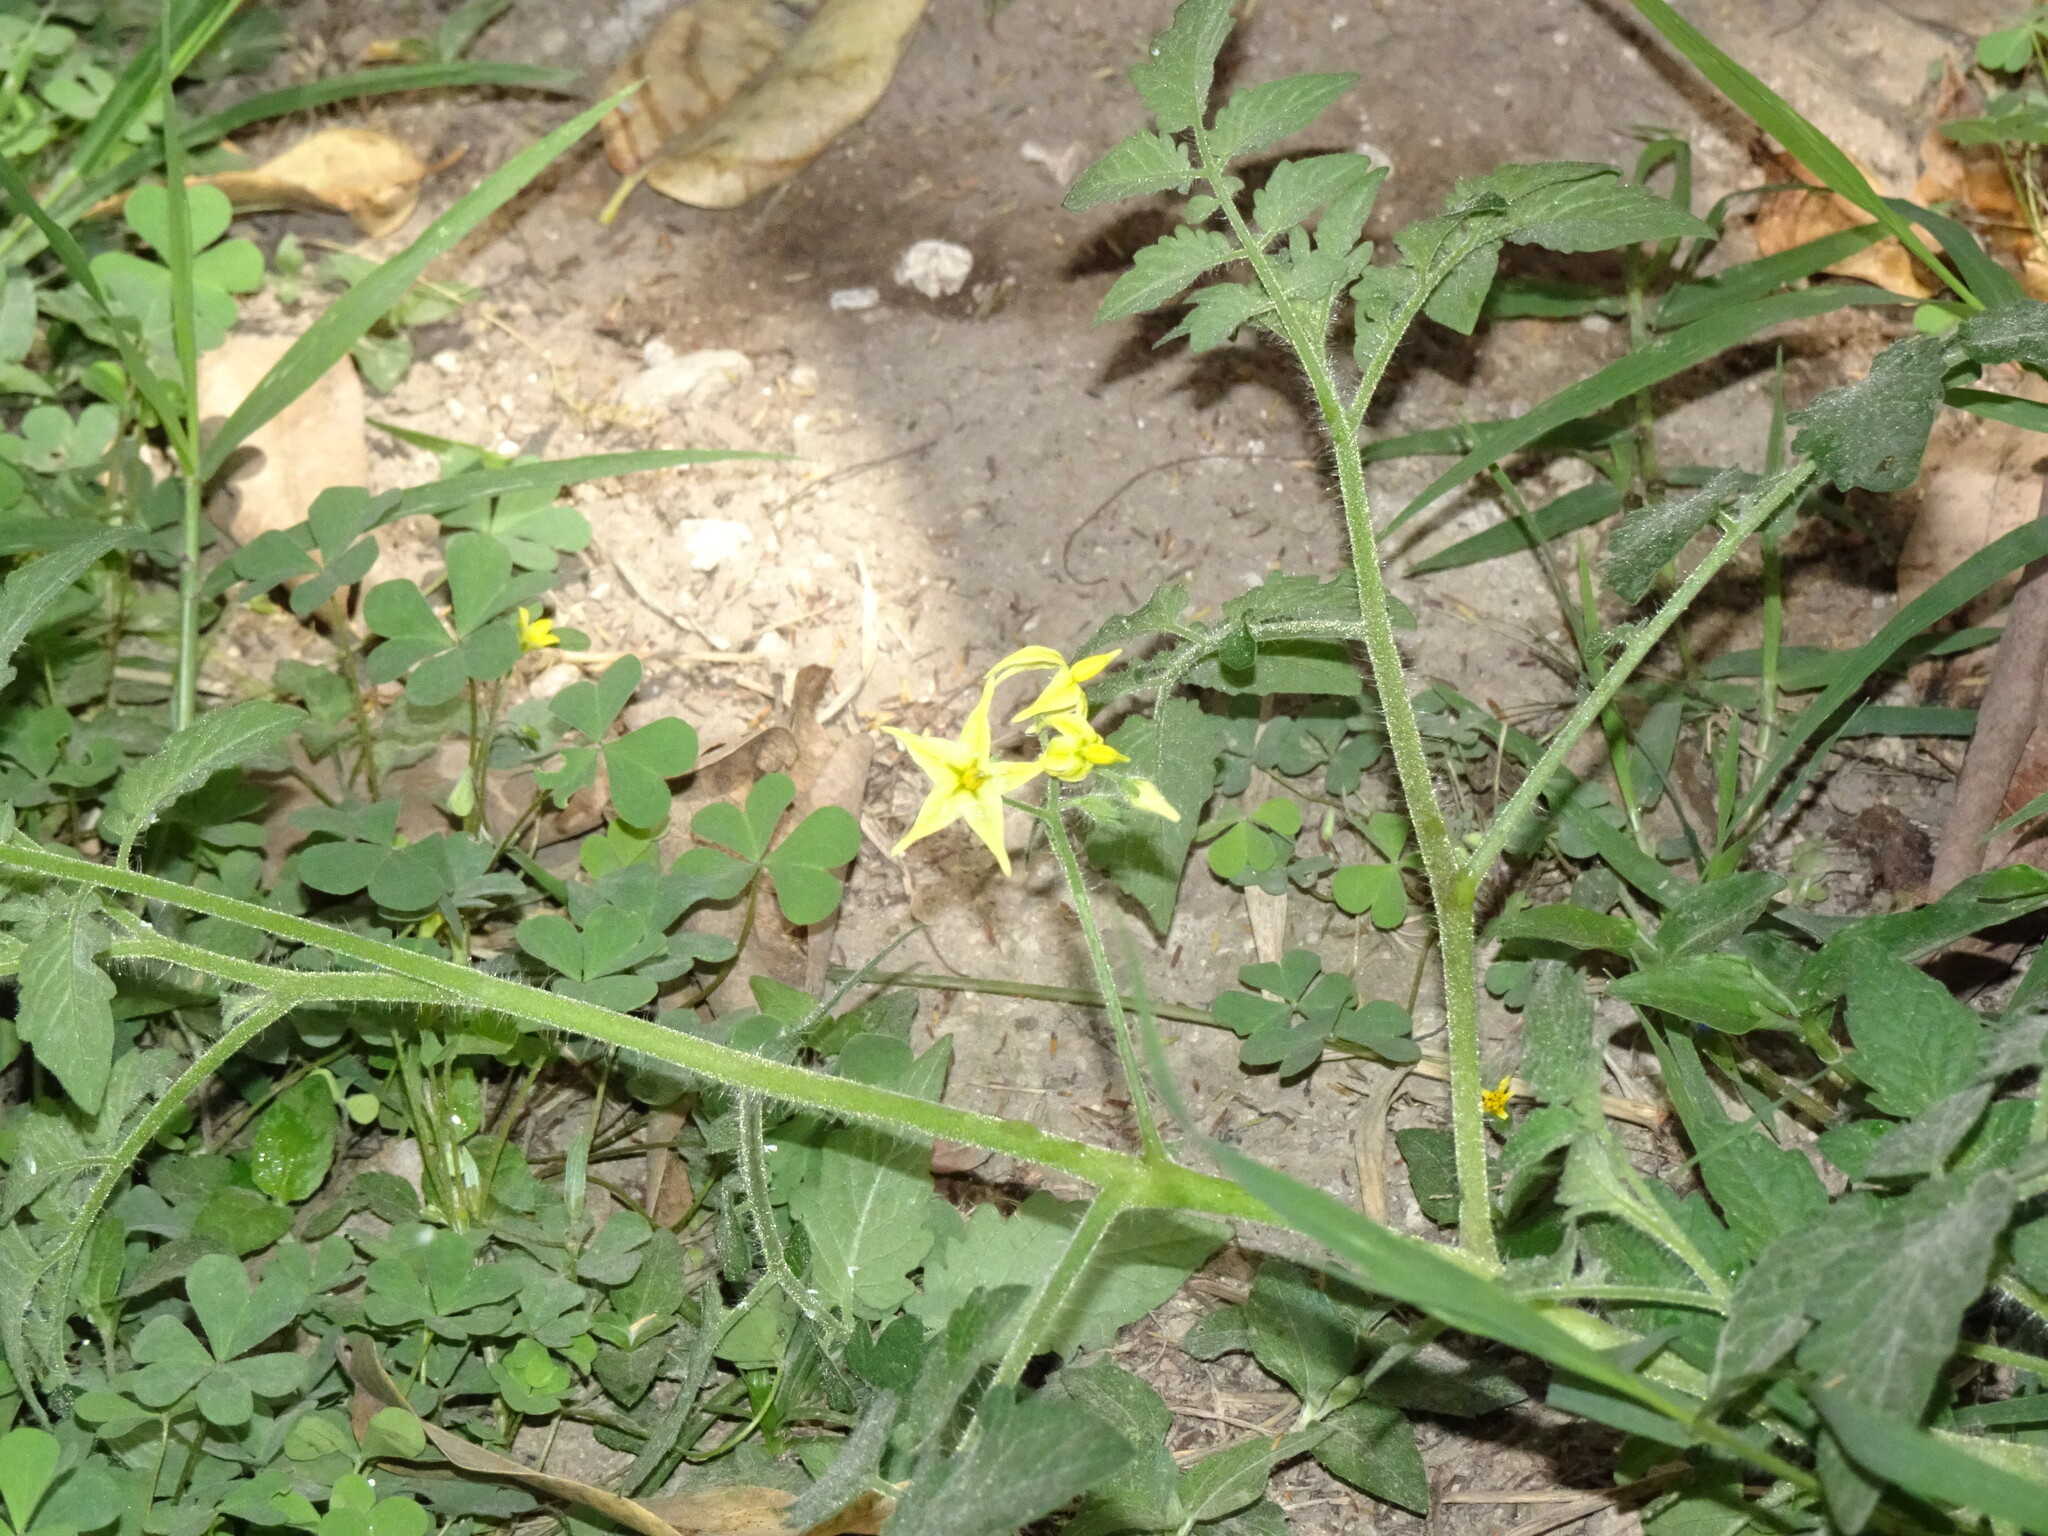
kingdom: Plantae
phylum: Tracheophyta
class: Magnoliopsida
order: Solanales
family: Solanaceae
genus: Solanum
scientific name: Solanum lycopersicum
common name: Garden tomato
